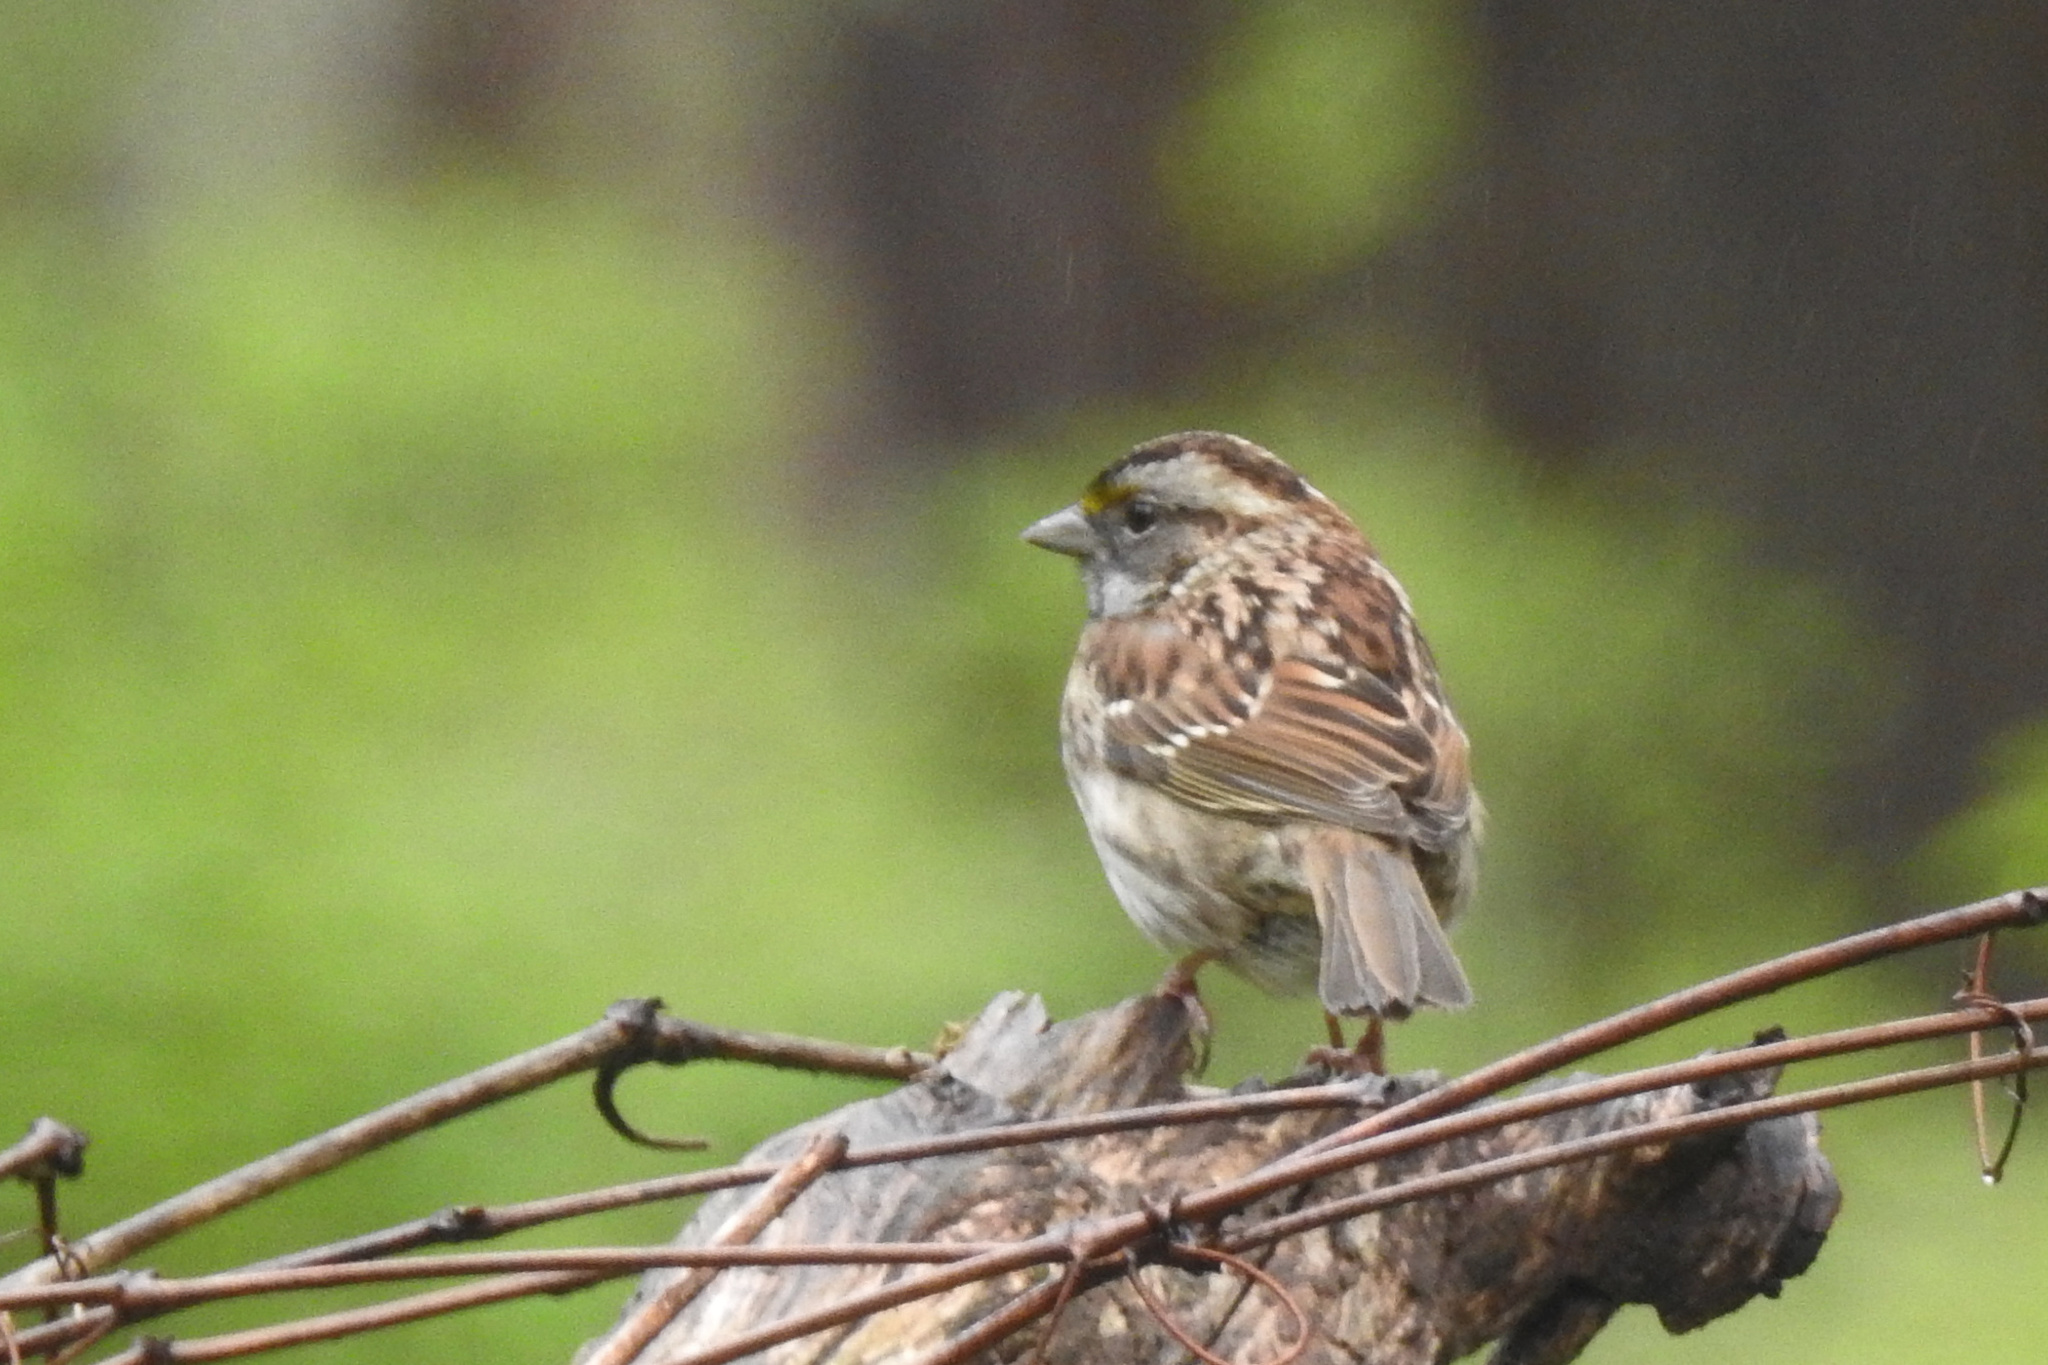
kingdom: Animalia
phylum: Chordata
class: Aves
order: Passeriformes
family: Passerellidae
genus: Zonotrichia
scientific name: Zonotrichia albicollis
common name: White-throated sparrow
